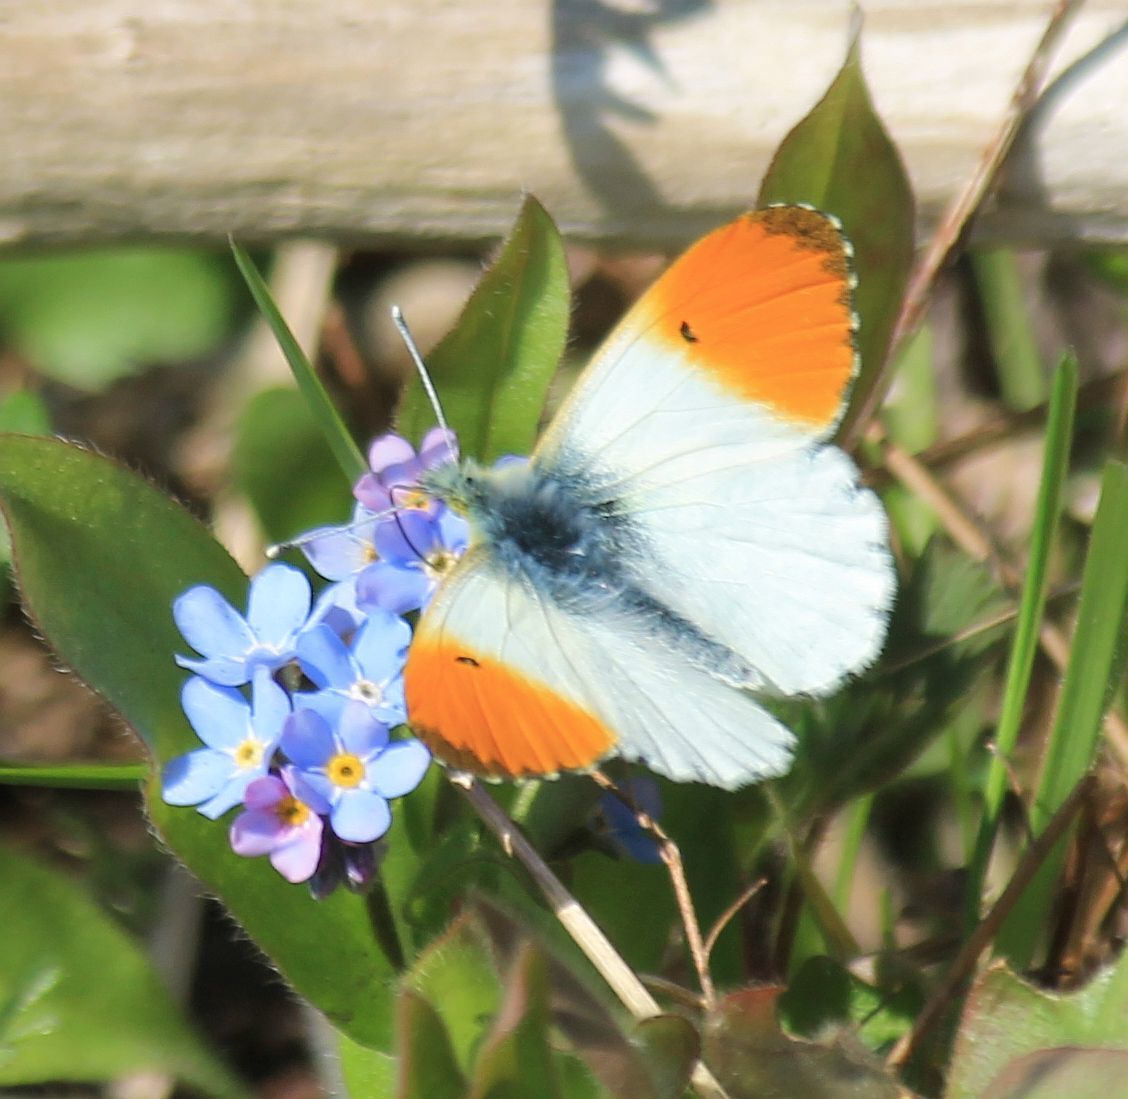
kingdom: Animalia
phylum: Arthropoda
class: Insecta
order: Lepidoptera
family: Pieridae
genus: Anthocharis
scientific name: Anthocharis cardamines
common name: Orange-tip
